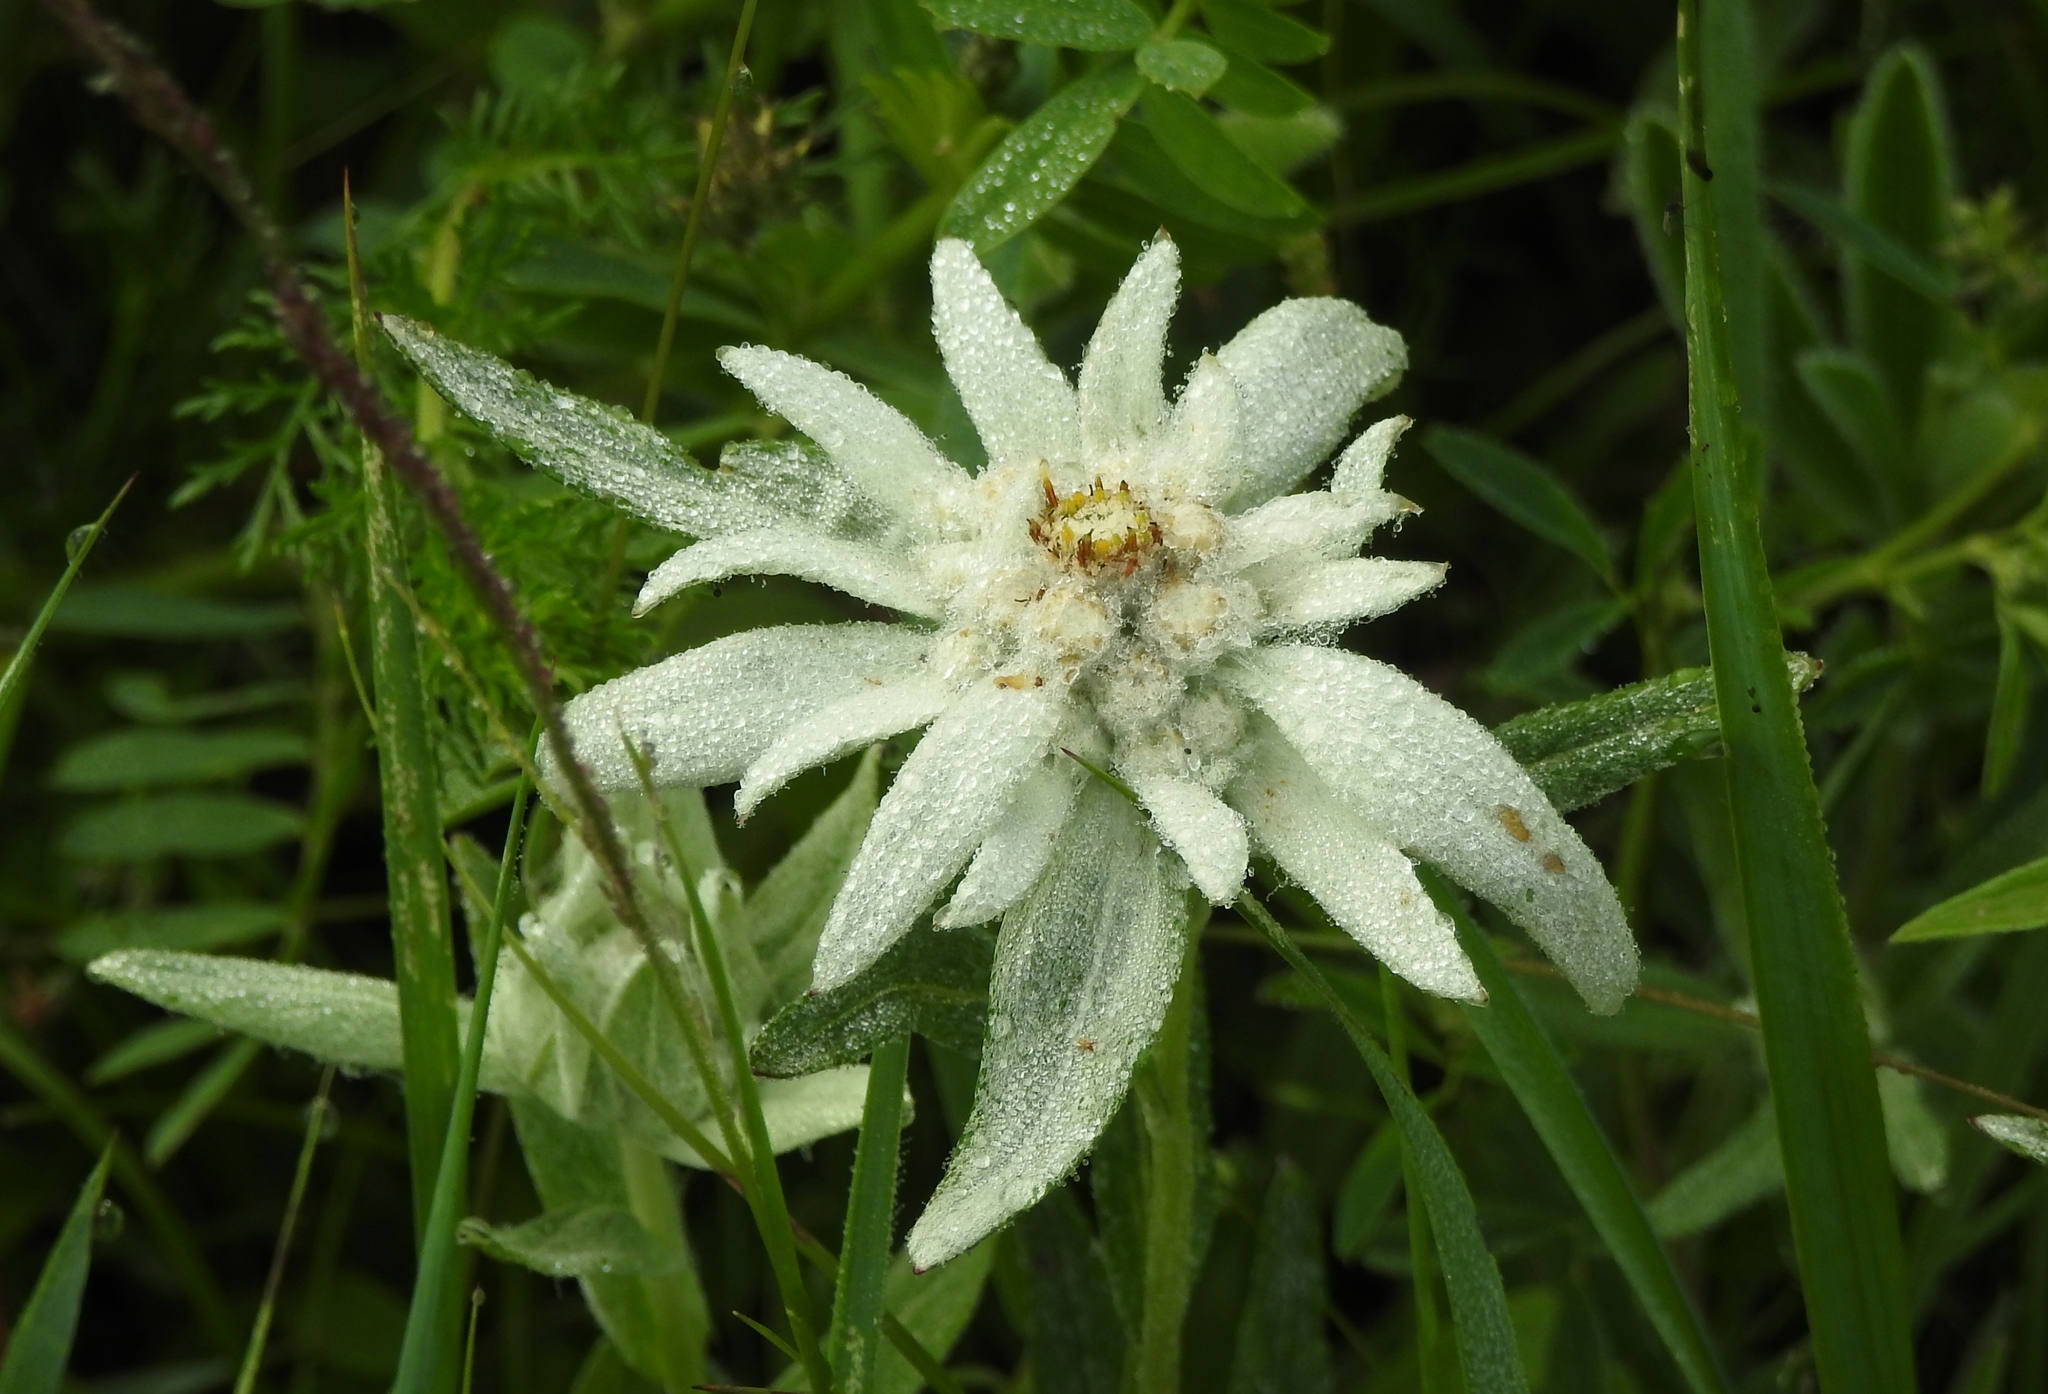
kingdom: Plantae
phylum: Tracheophyta
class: Magnoliopsida
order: Asterales
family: Asteraceae
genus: Leontopodium
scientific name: Leontopodium conglobatum
